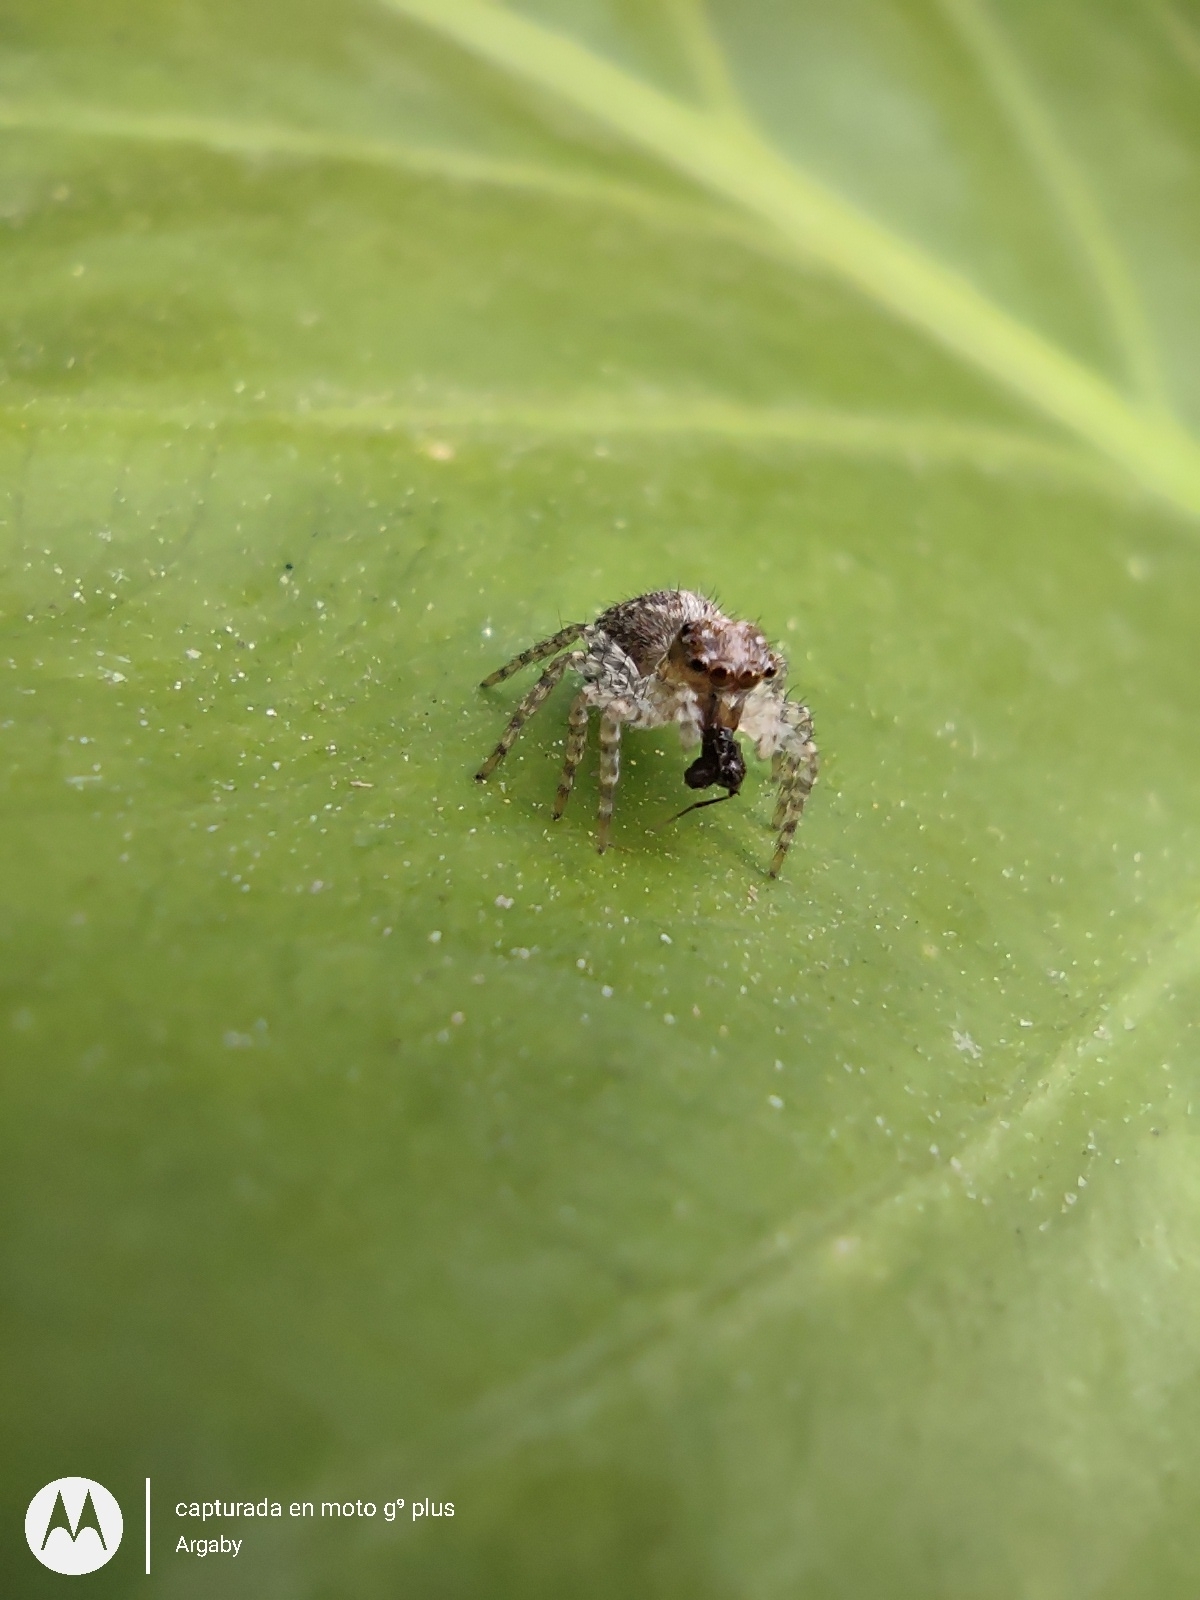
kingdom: Animalia
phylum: Arthropoda
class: Arachnida
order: Araneae
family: Salticidae
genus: Saitis
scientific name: Saitis variegatus
